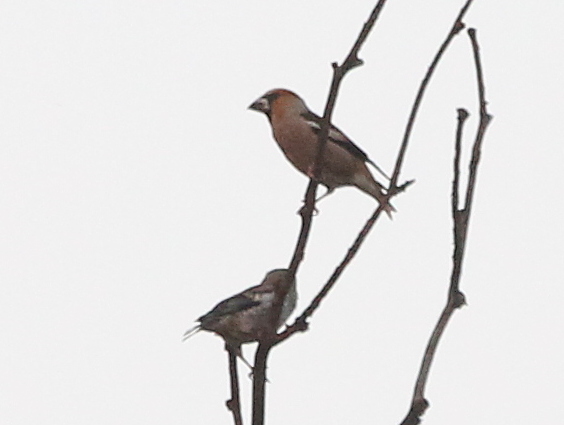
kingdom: Animalia
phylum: Chordata
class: Aves
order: Passeriformes
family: Fringillidae
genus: Coccothraustes
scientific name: Coccothraustes coccothraustes
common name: Hawfinch
